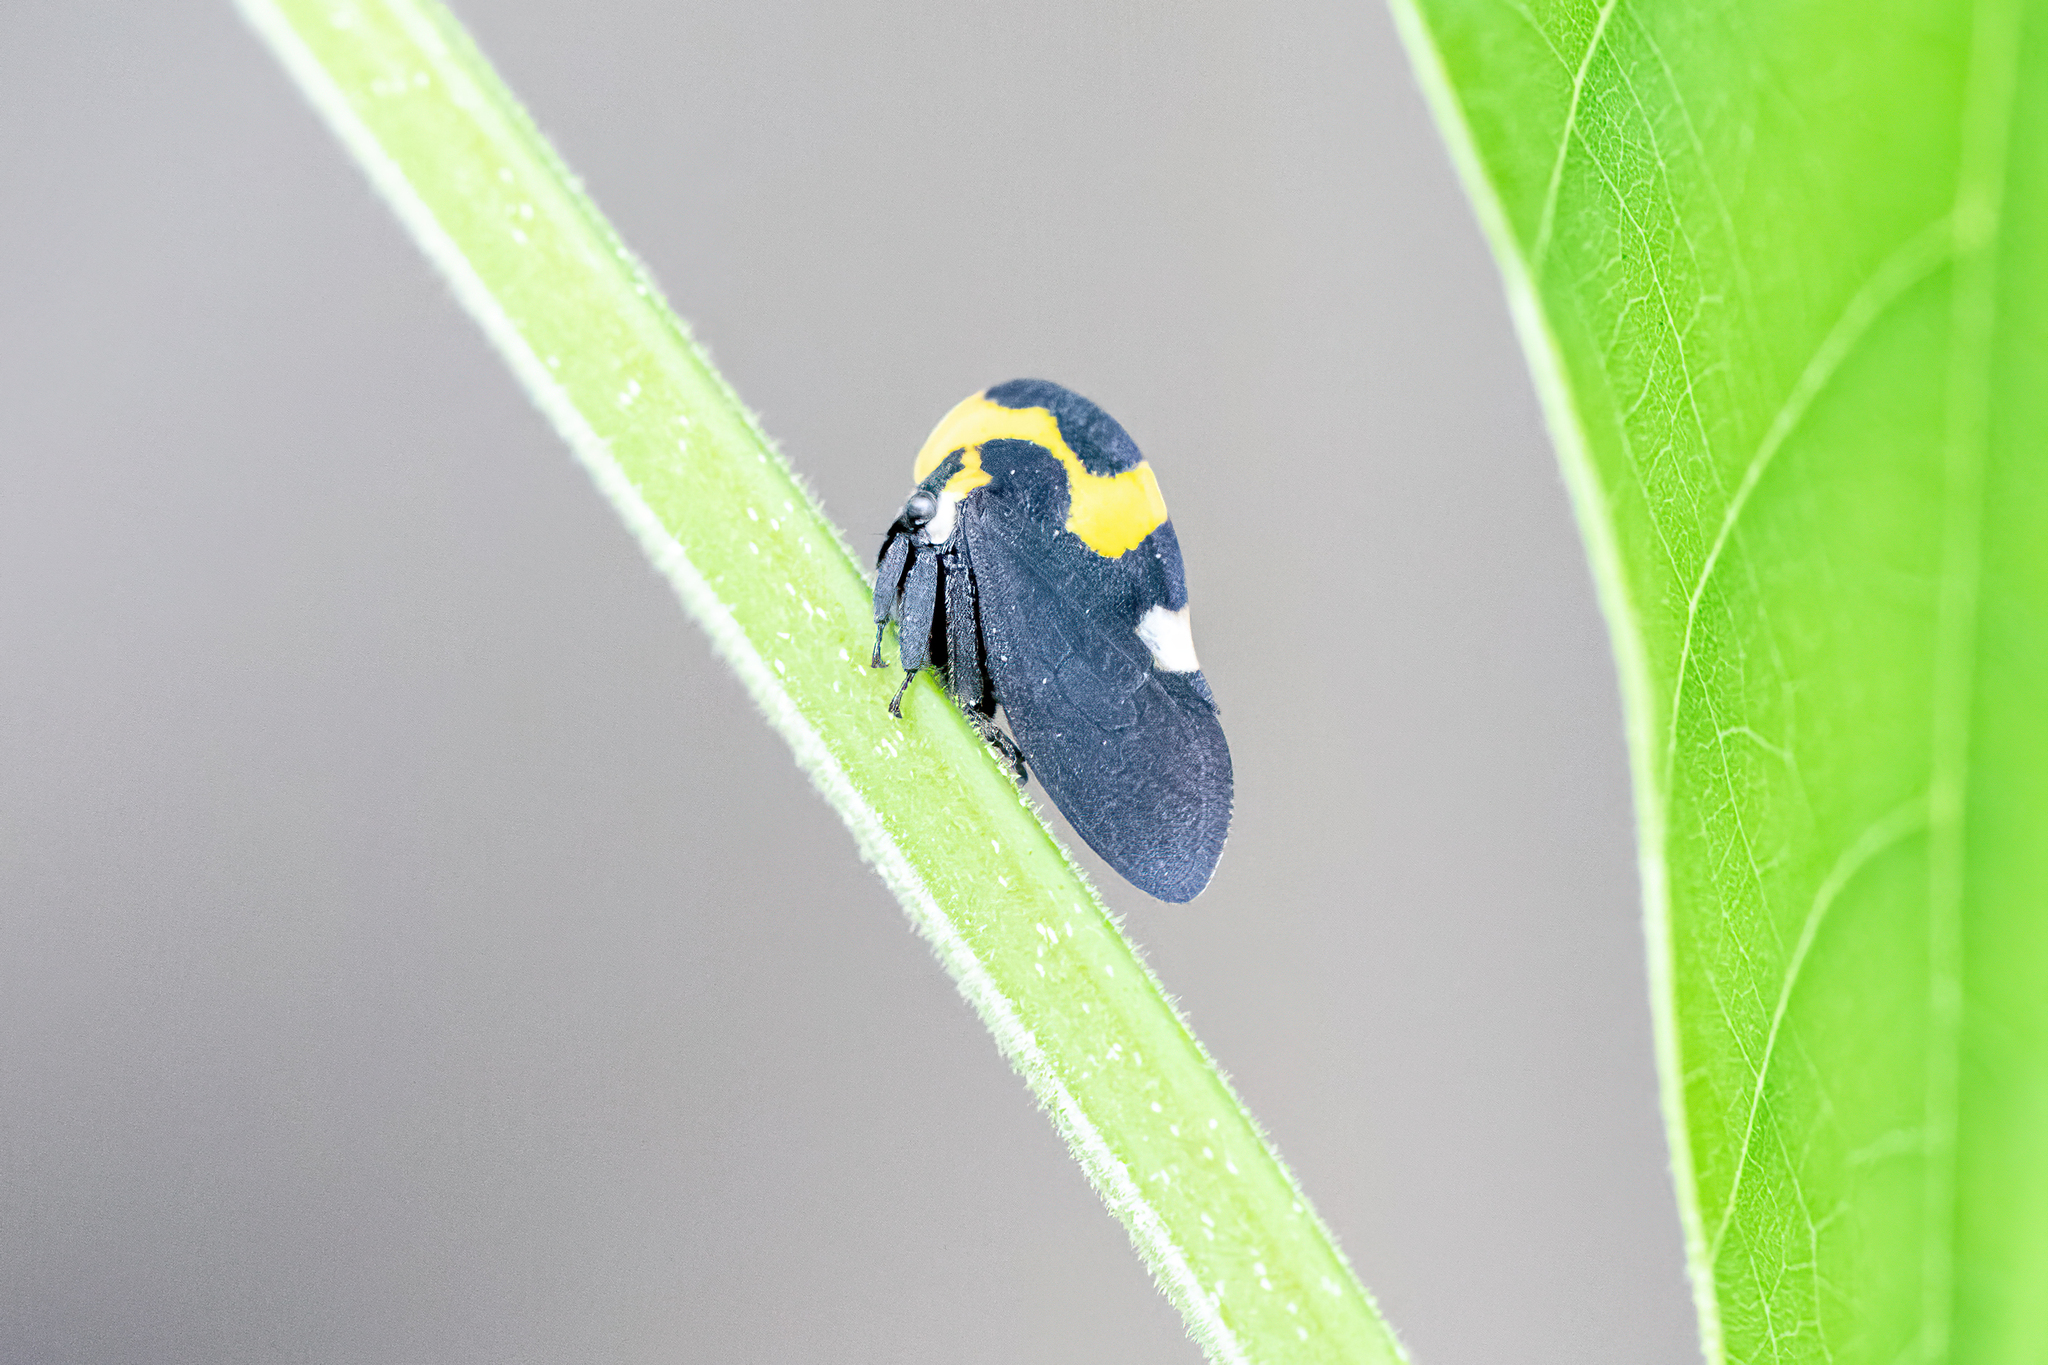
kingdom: Animalia
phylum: Arthropoda
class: Insecta
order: Hemiptera
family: Membracidae
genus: Membracis
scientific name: Membracis mexicana
